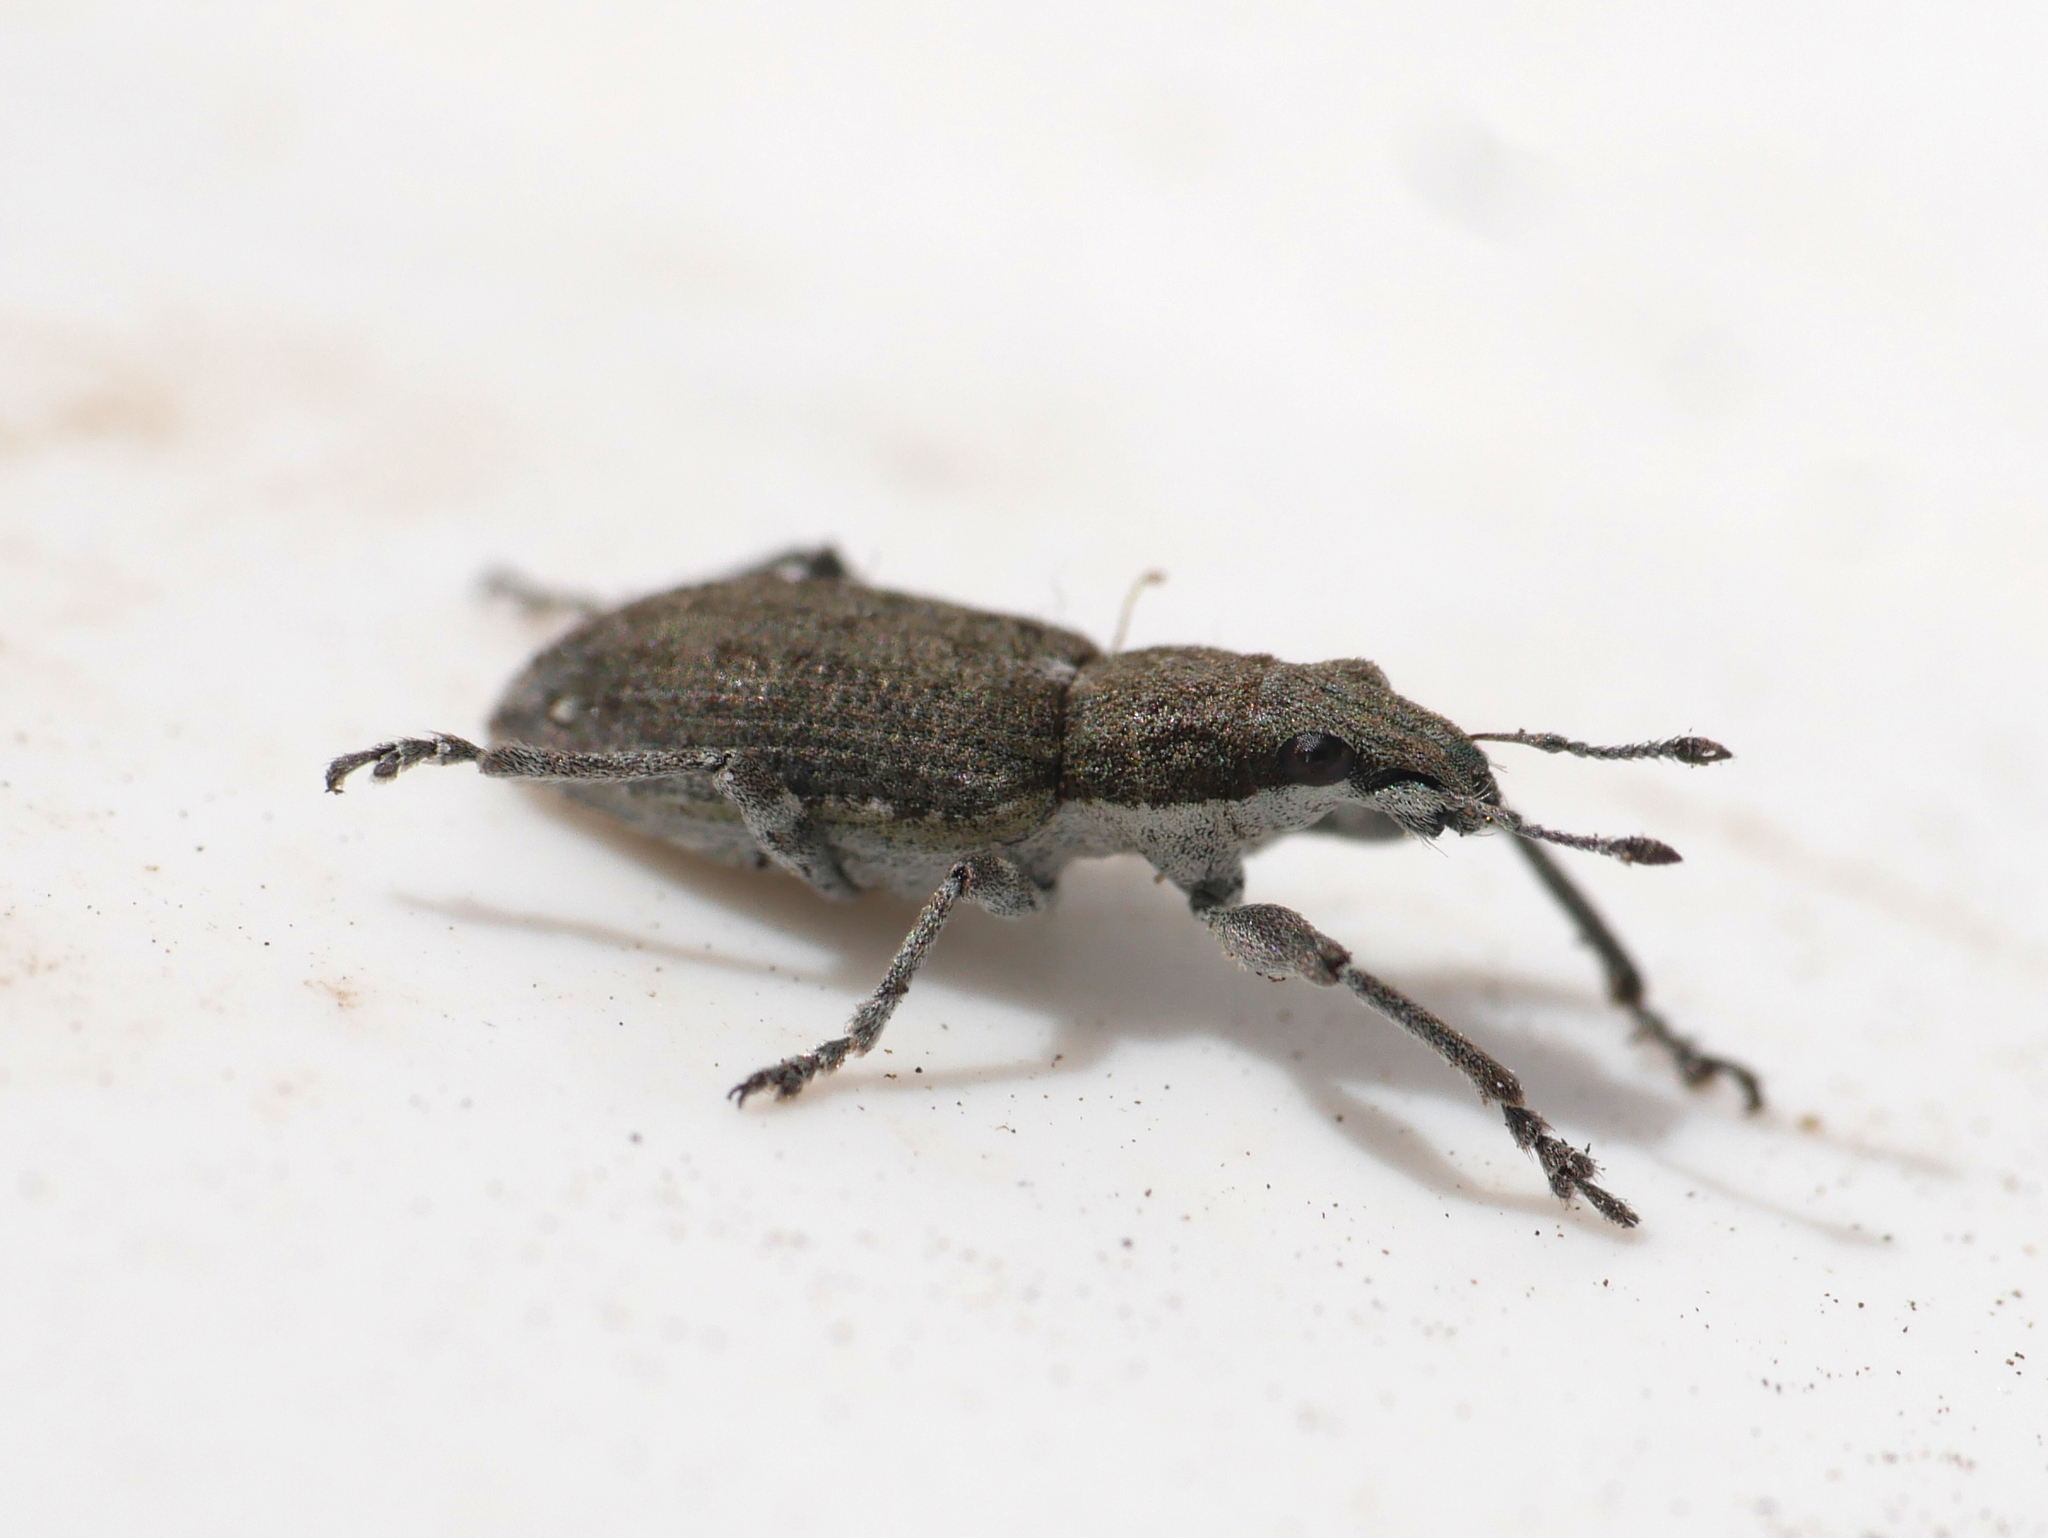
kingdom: Animalia
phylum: Arthropoda
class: Insecta
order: Coleoptera
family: Curculionidae
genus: Charagmus
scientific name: Charagmus griseus
